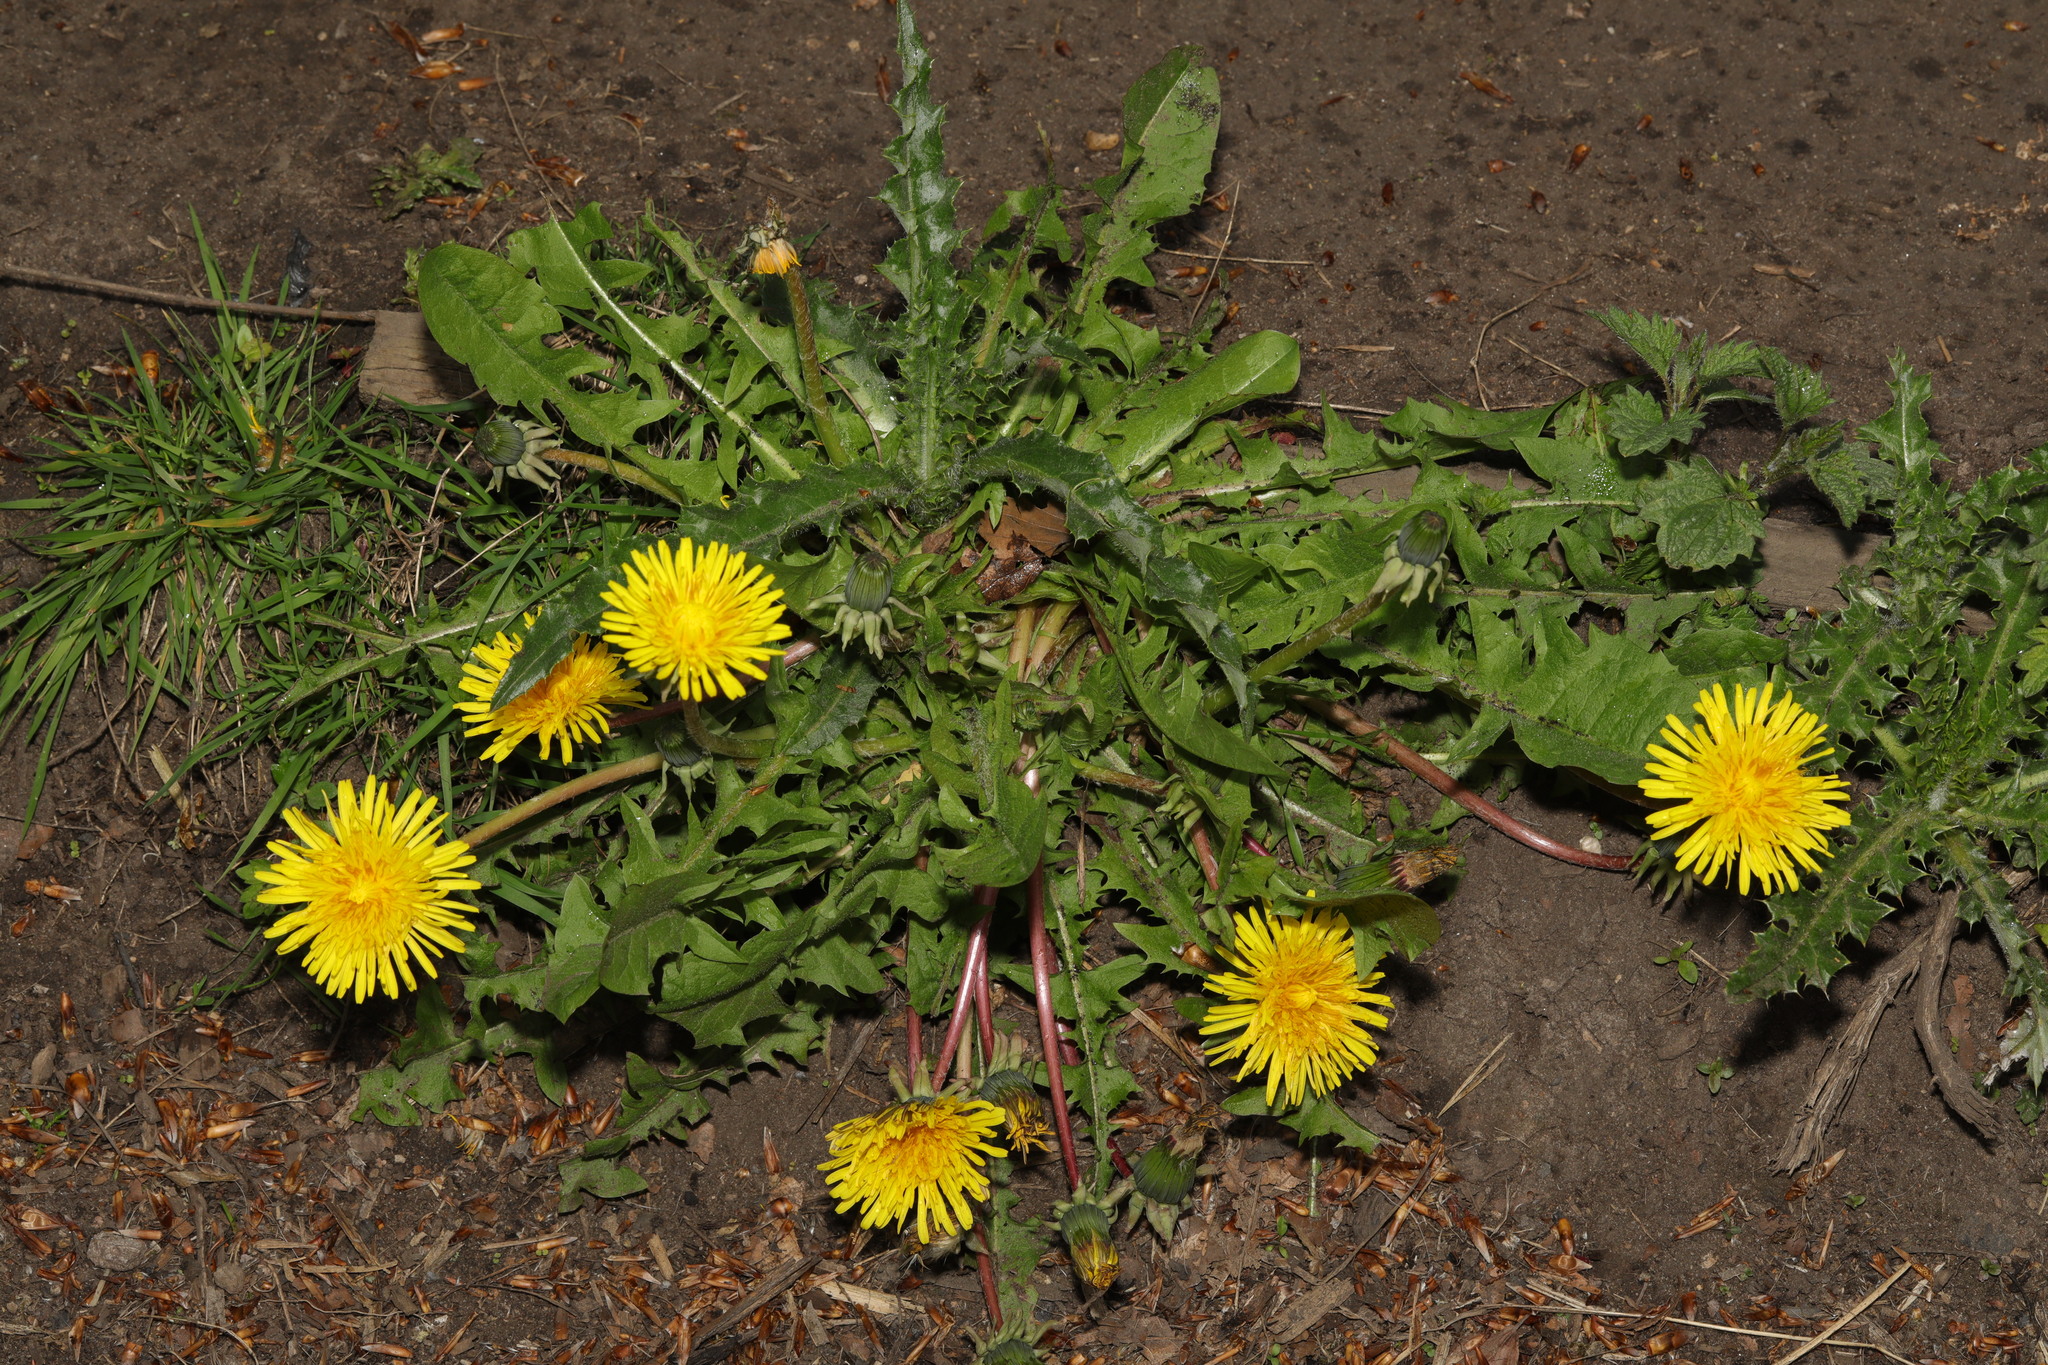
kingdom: Plantae
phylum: Tracheophyta
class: Magnoliopsida
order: Asterales
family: Asteraceae
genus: Taraxacum
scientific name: Taraxacum officinale
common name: Common dandelion
